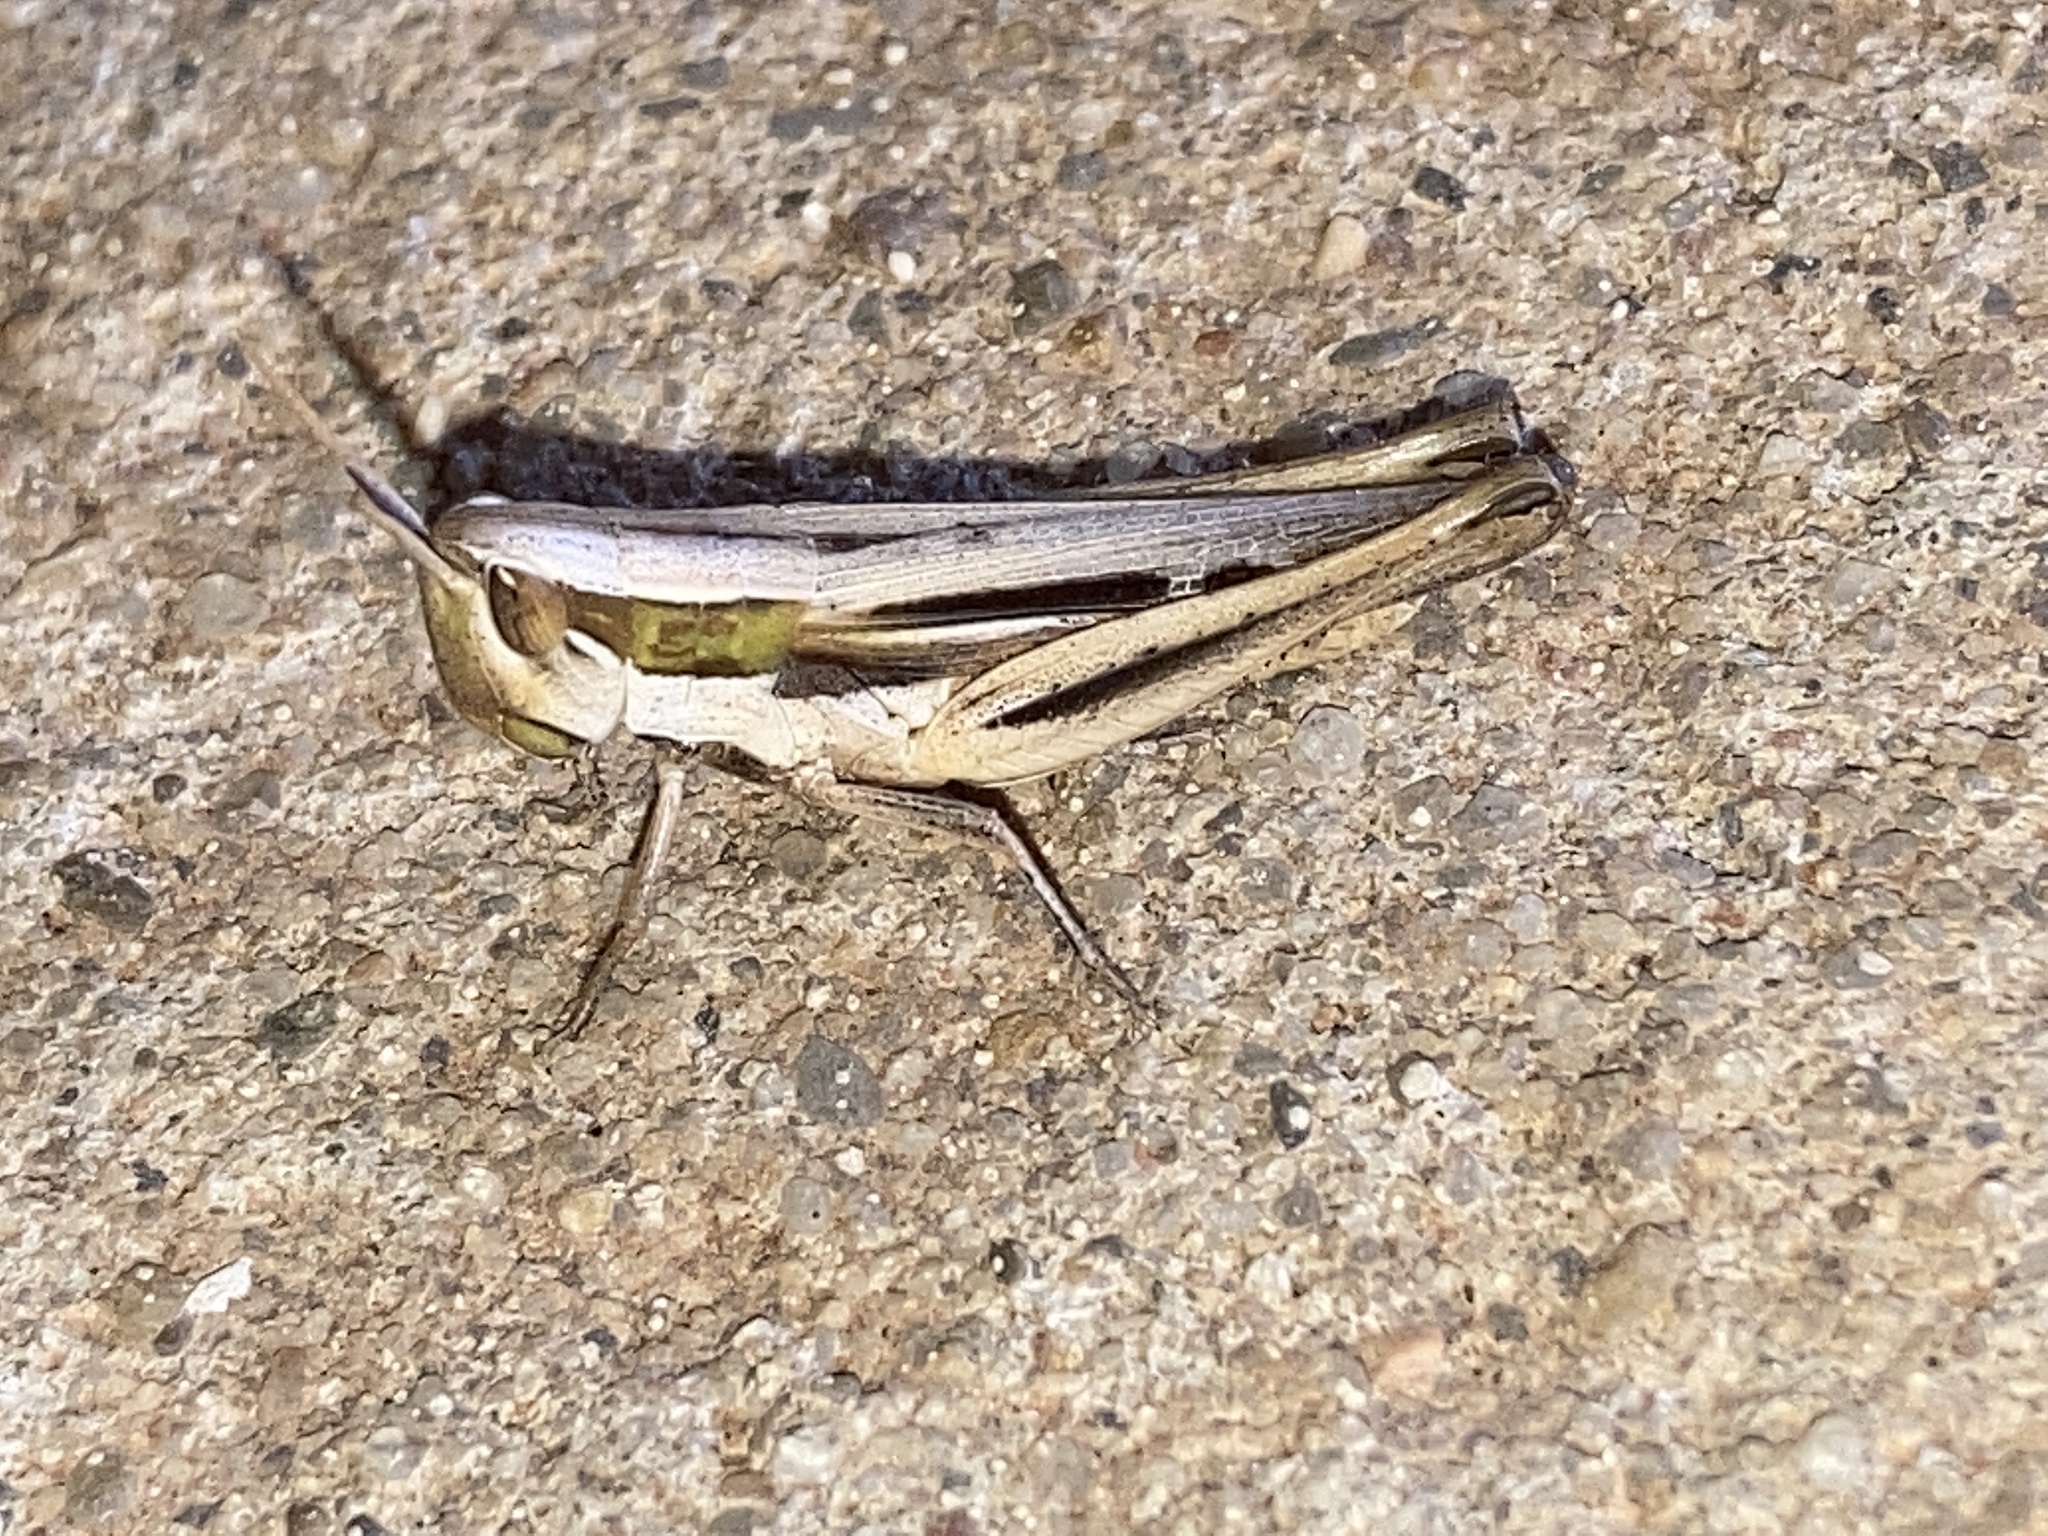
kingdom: Animalia
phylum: Arthropoda
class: Insecta
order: Orthoptera
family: Acrididae
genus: Opeia
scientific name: Opeia obscura
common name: Obscure grasshopper
